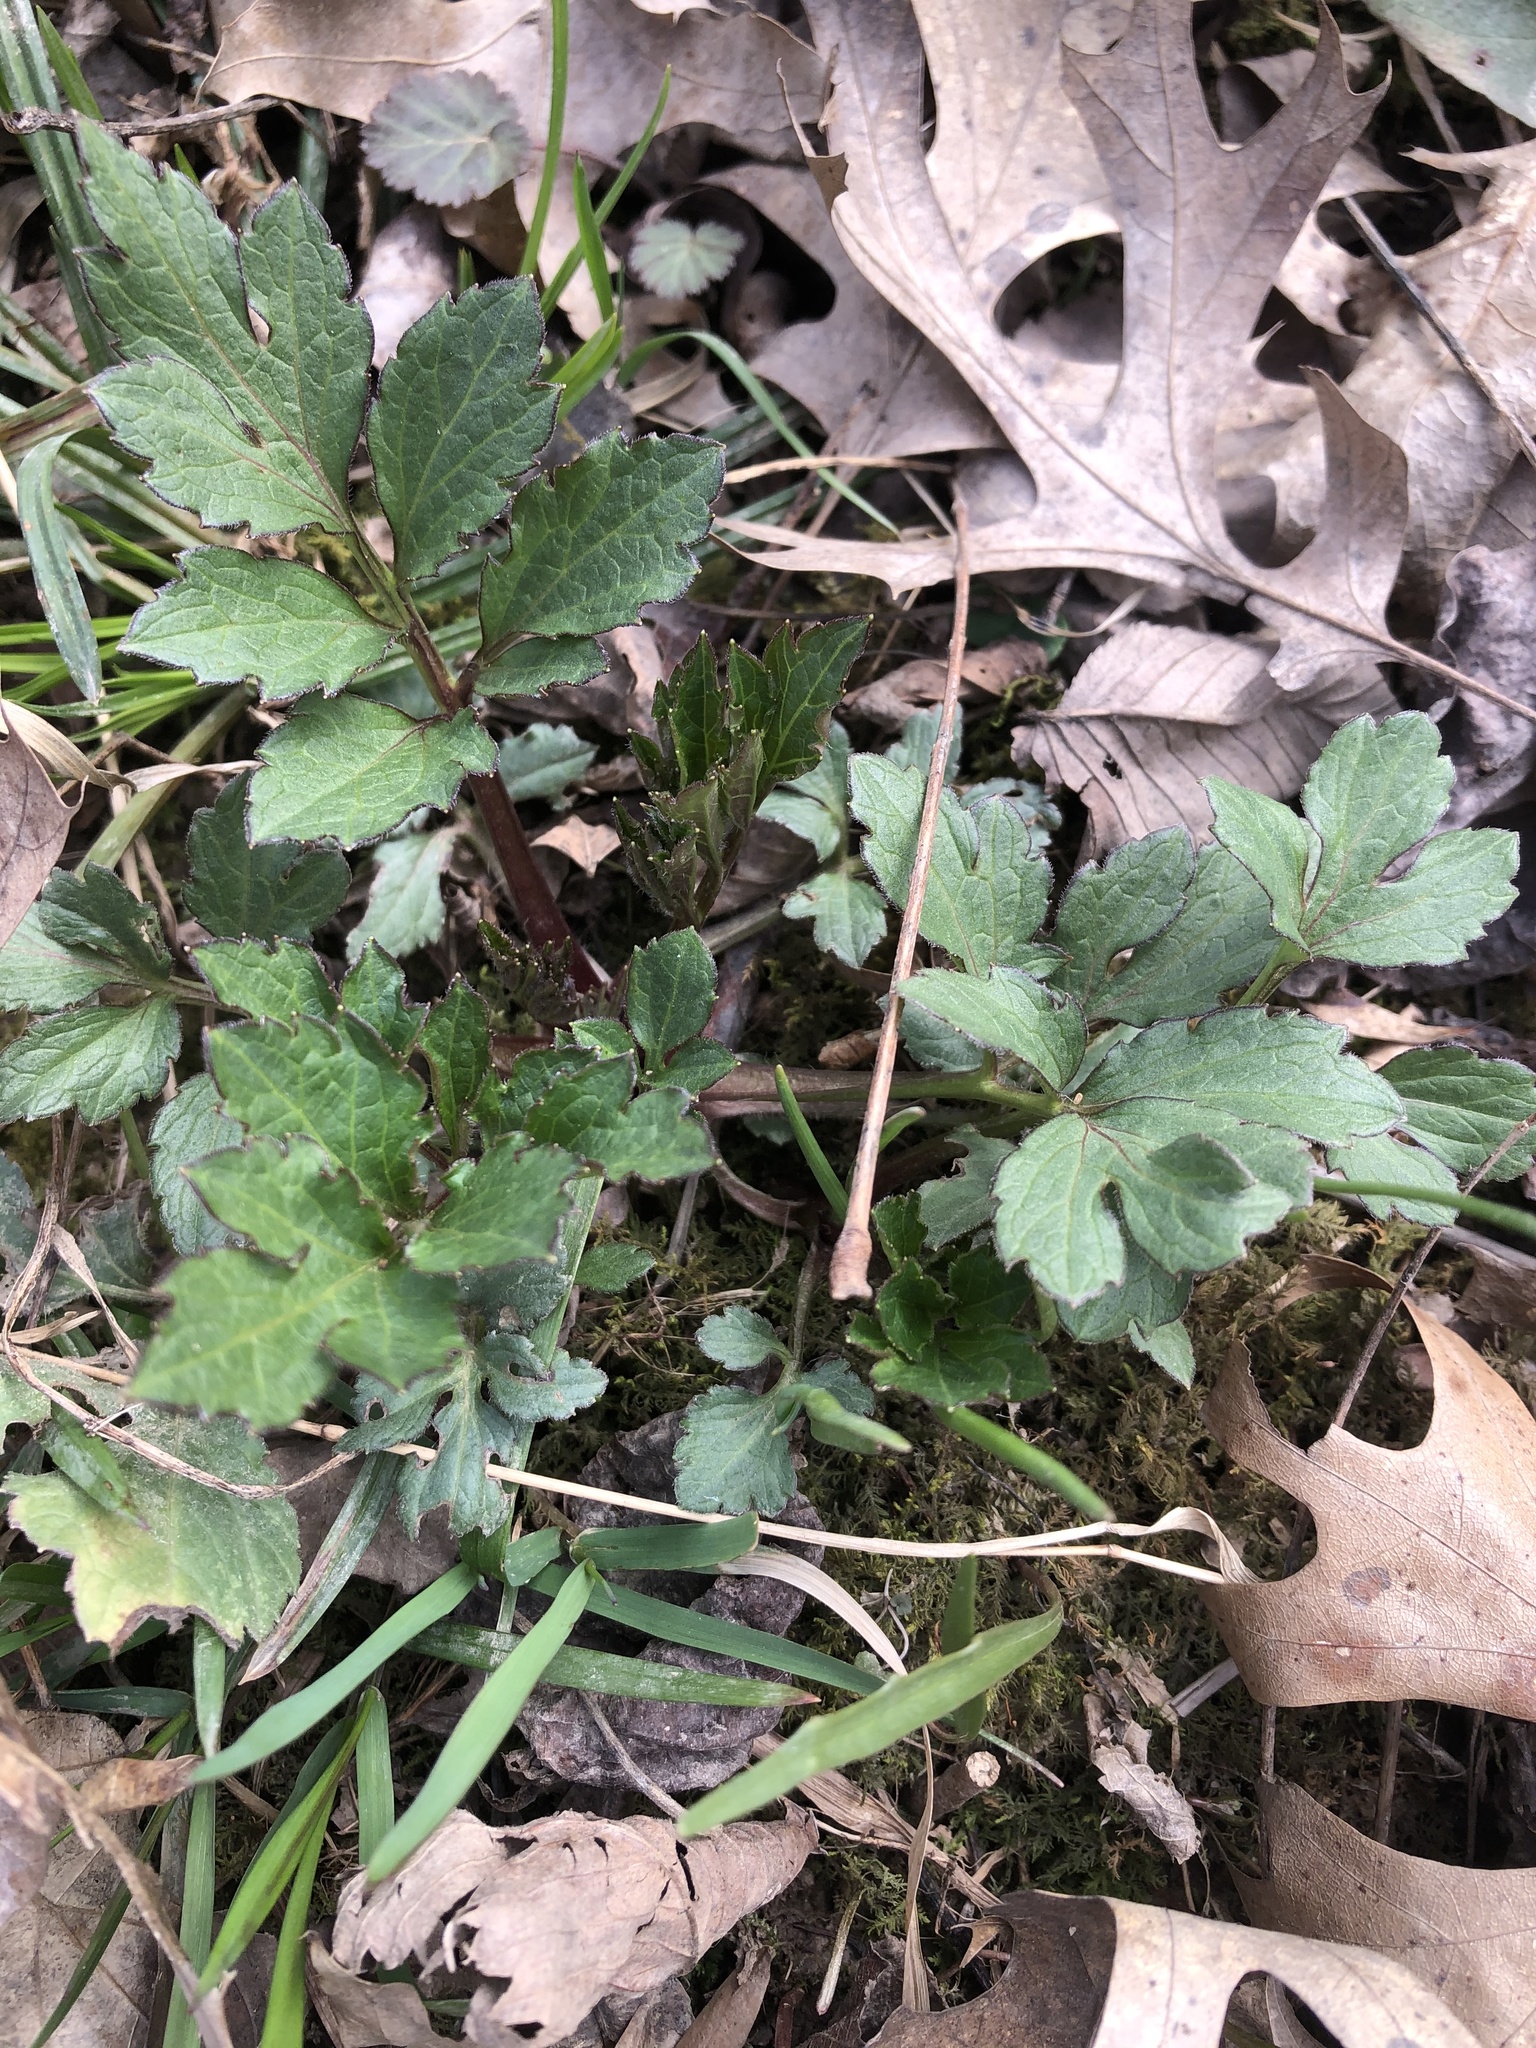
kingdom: Plantae
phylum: Tracheophyta
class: Magnoliopsida
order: Asterales
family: Asteraceae
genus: Rudbeckia
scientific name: Rudbeckia laciniata
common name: Coneflower
